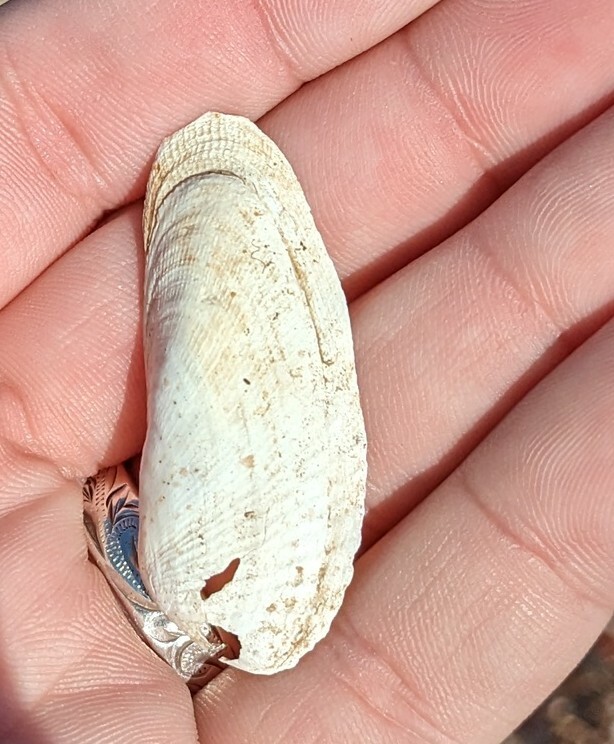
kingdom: Animalia
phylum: Mollusca
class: Bivalvia
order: Venerida
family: Veneridae
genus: Petricolaria
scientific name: Petricolaria pholadiformis
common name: American piddock
